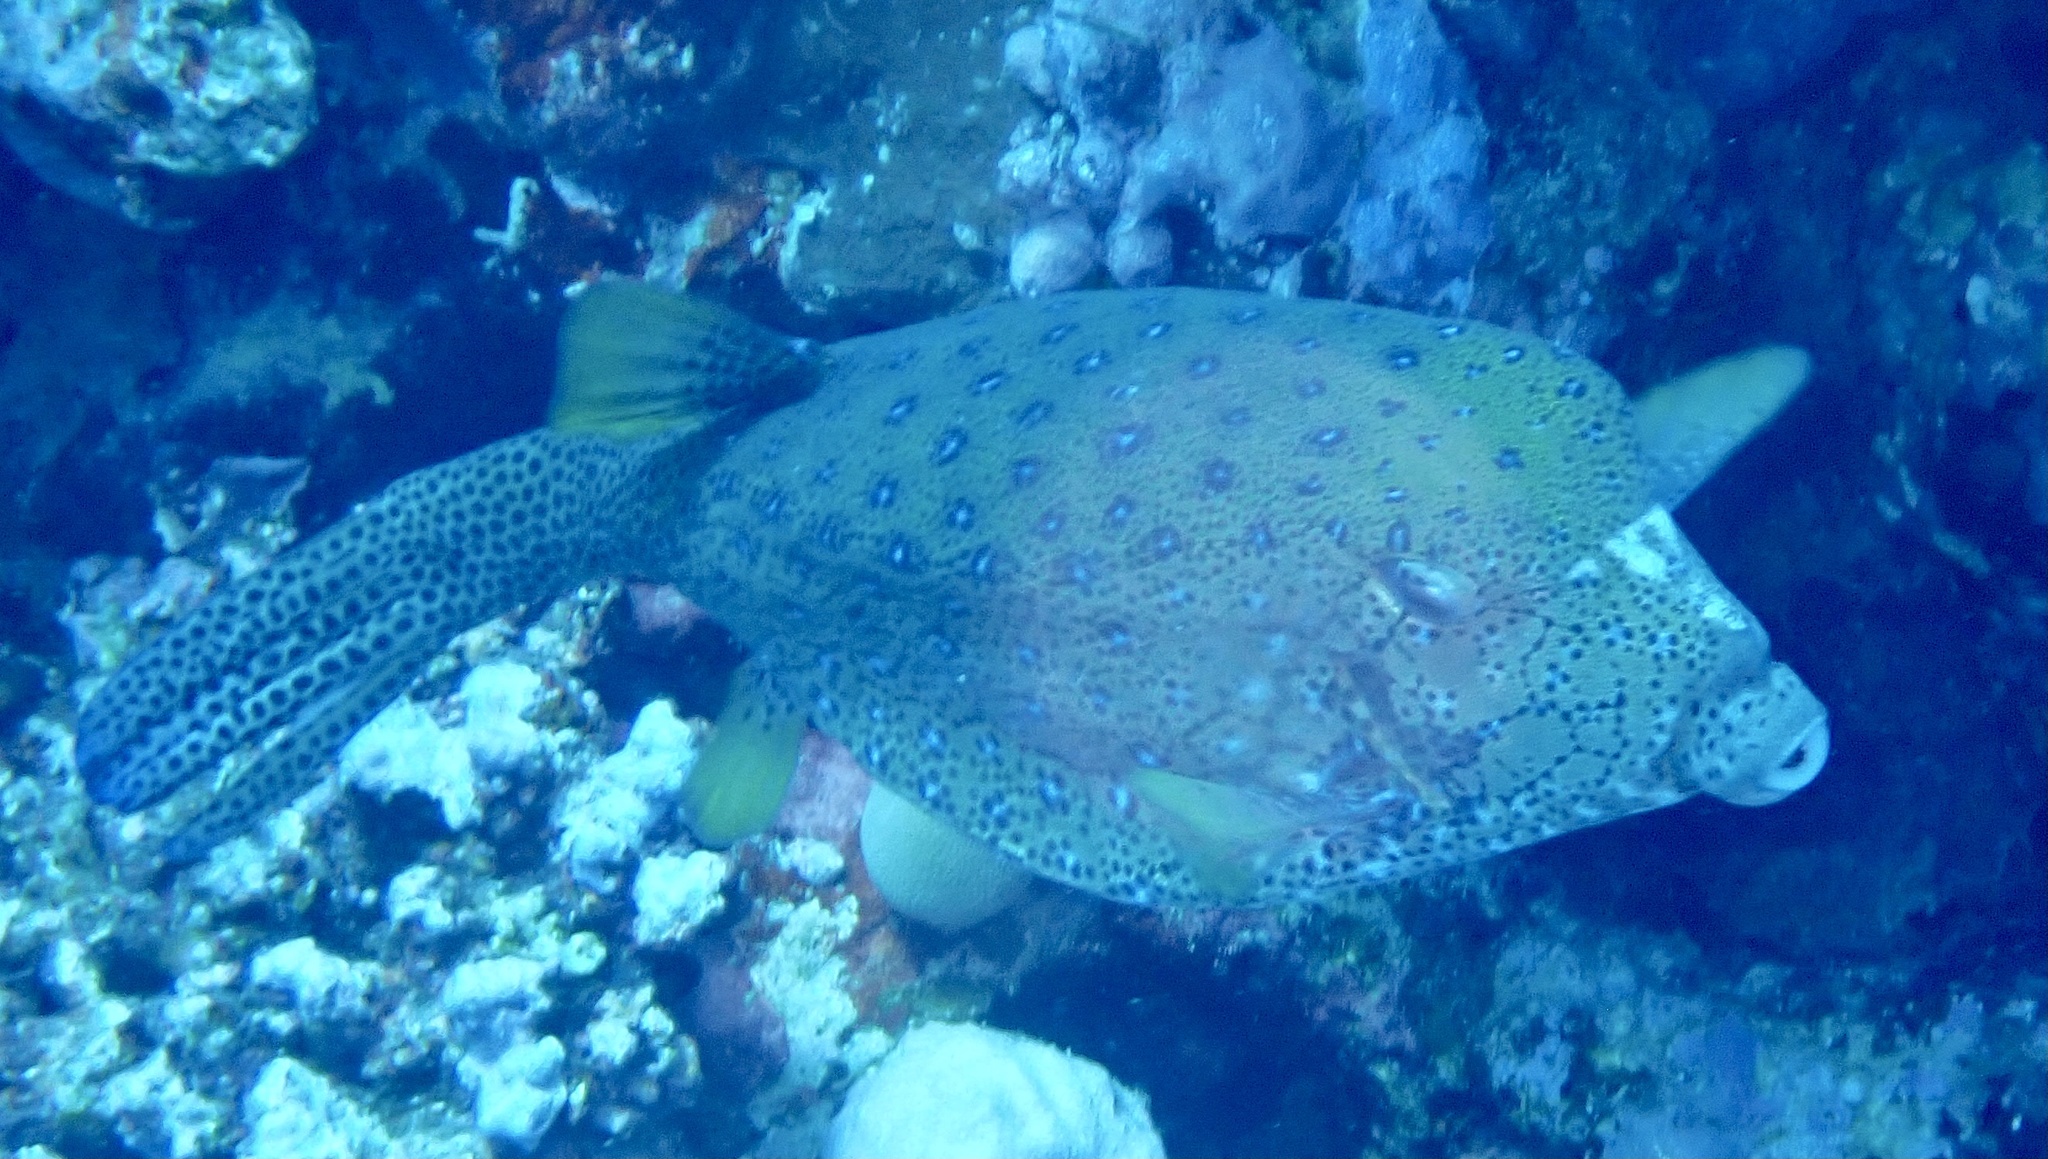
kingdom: Animalia
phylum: Chordata
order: Tetraodontiformes
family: Ostraciidae
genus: Ostracion
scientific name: Ostracion cubicus
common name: Cube trunkfish
